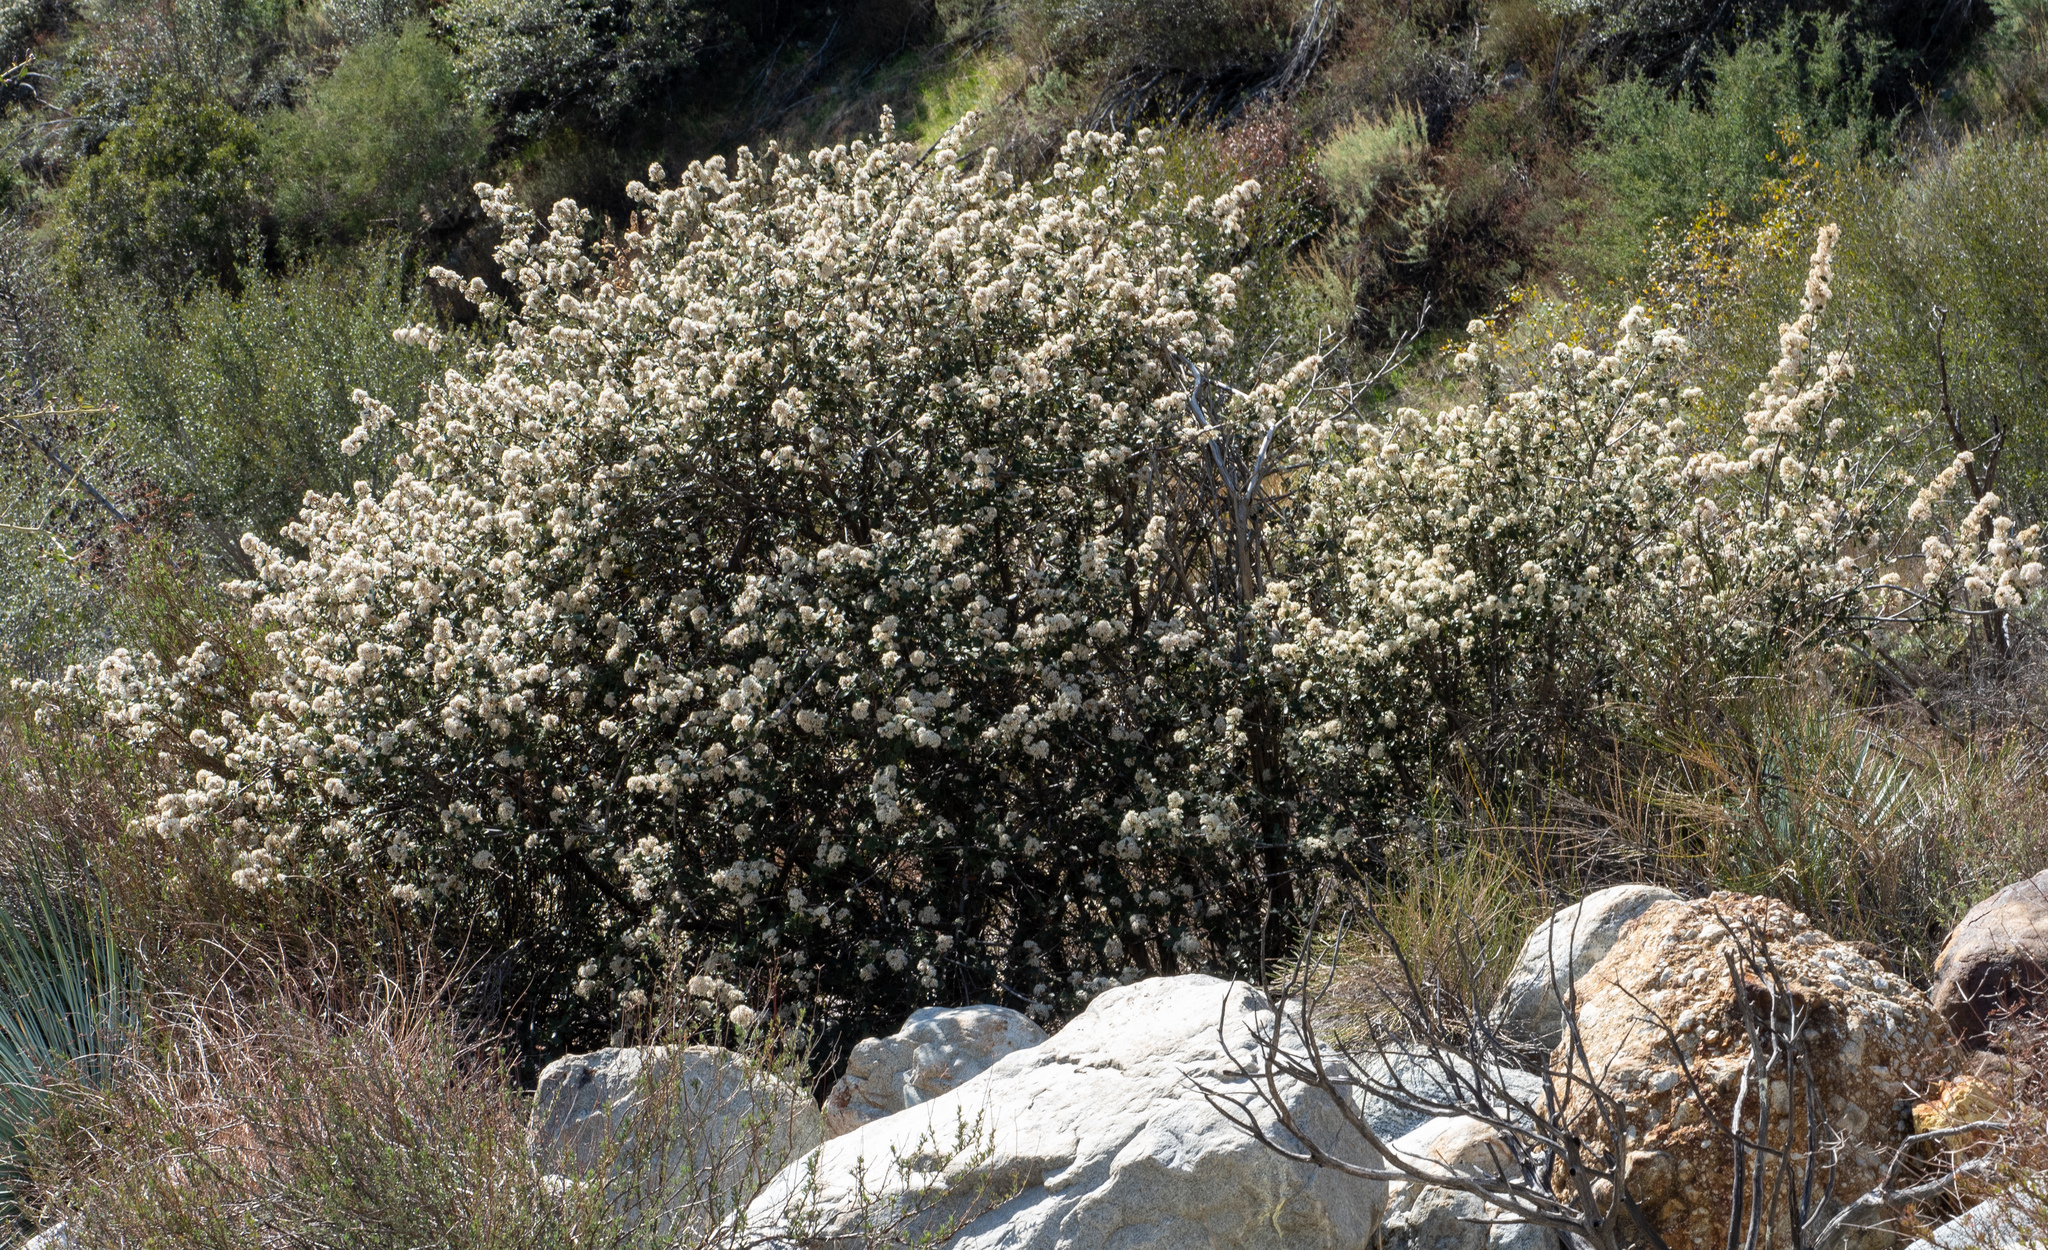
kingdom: Plantae
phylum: Tracheophyta
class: Magnoliopsida
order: Rosales
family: Rhamnaceae
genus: Ceanothus
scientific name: Ceanothus crassifolius
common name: Hoaryleaf ceanothus
